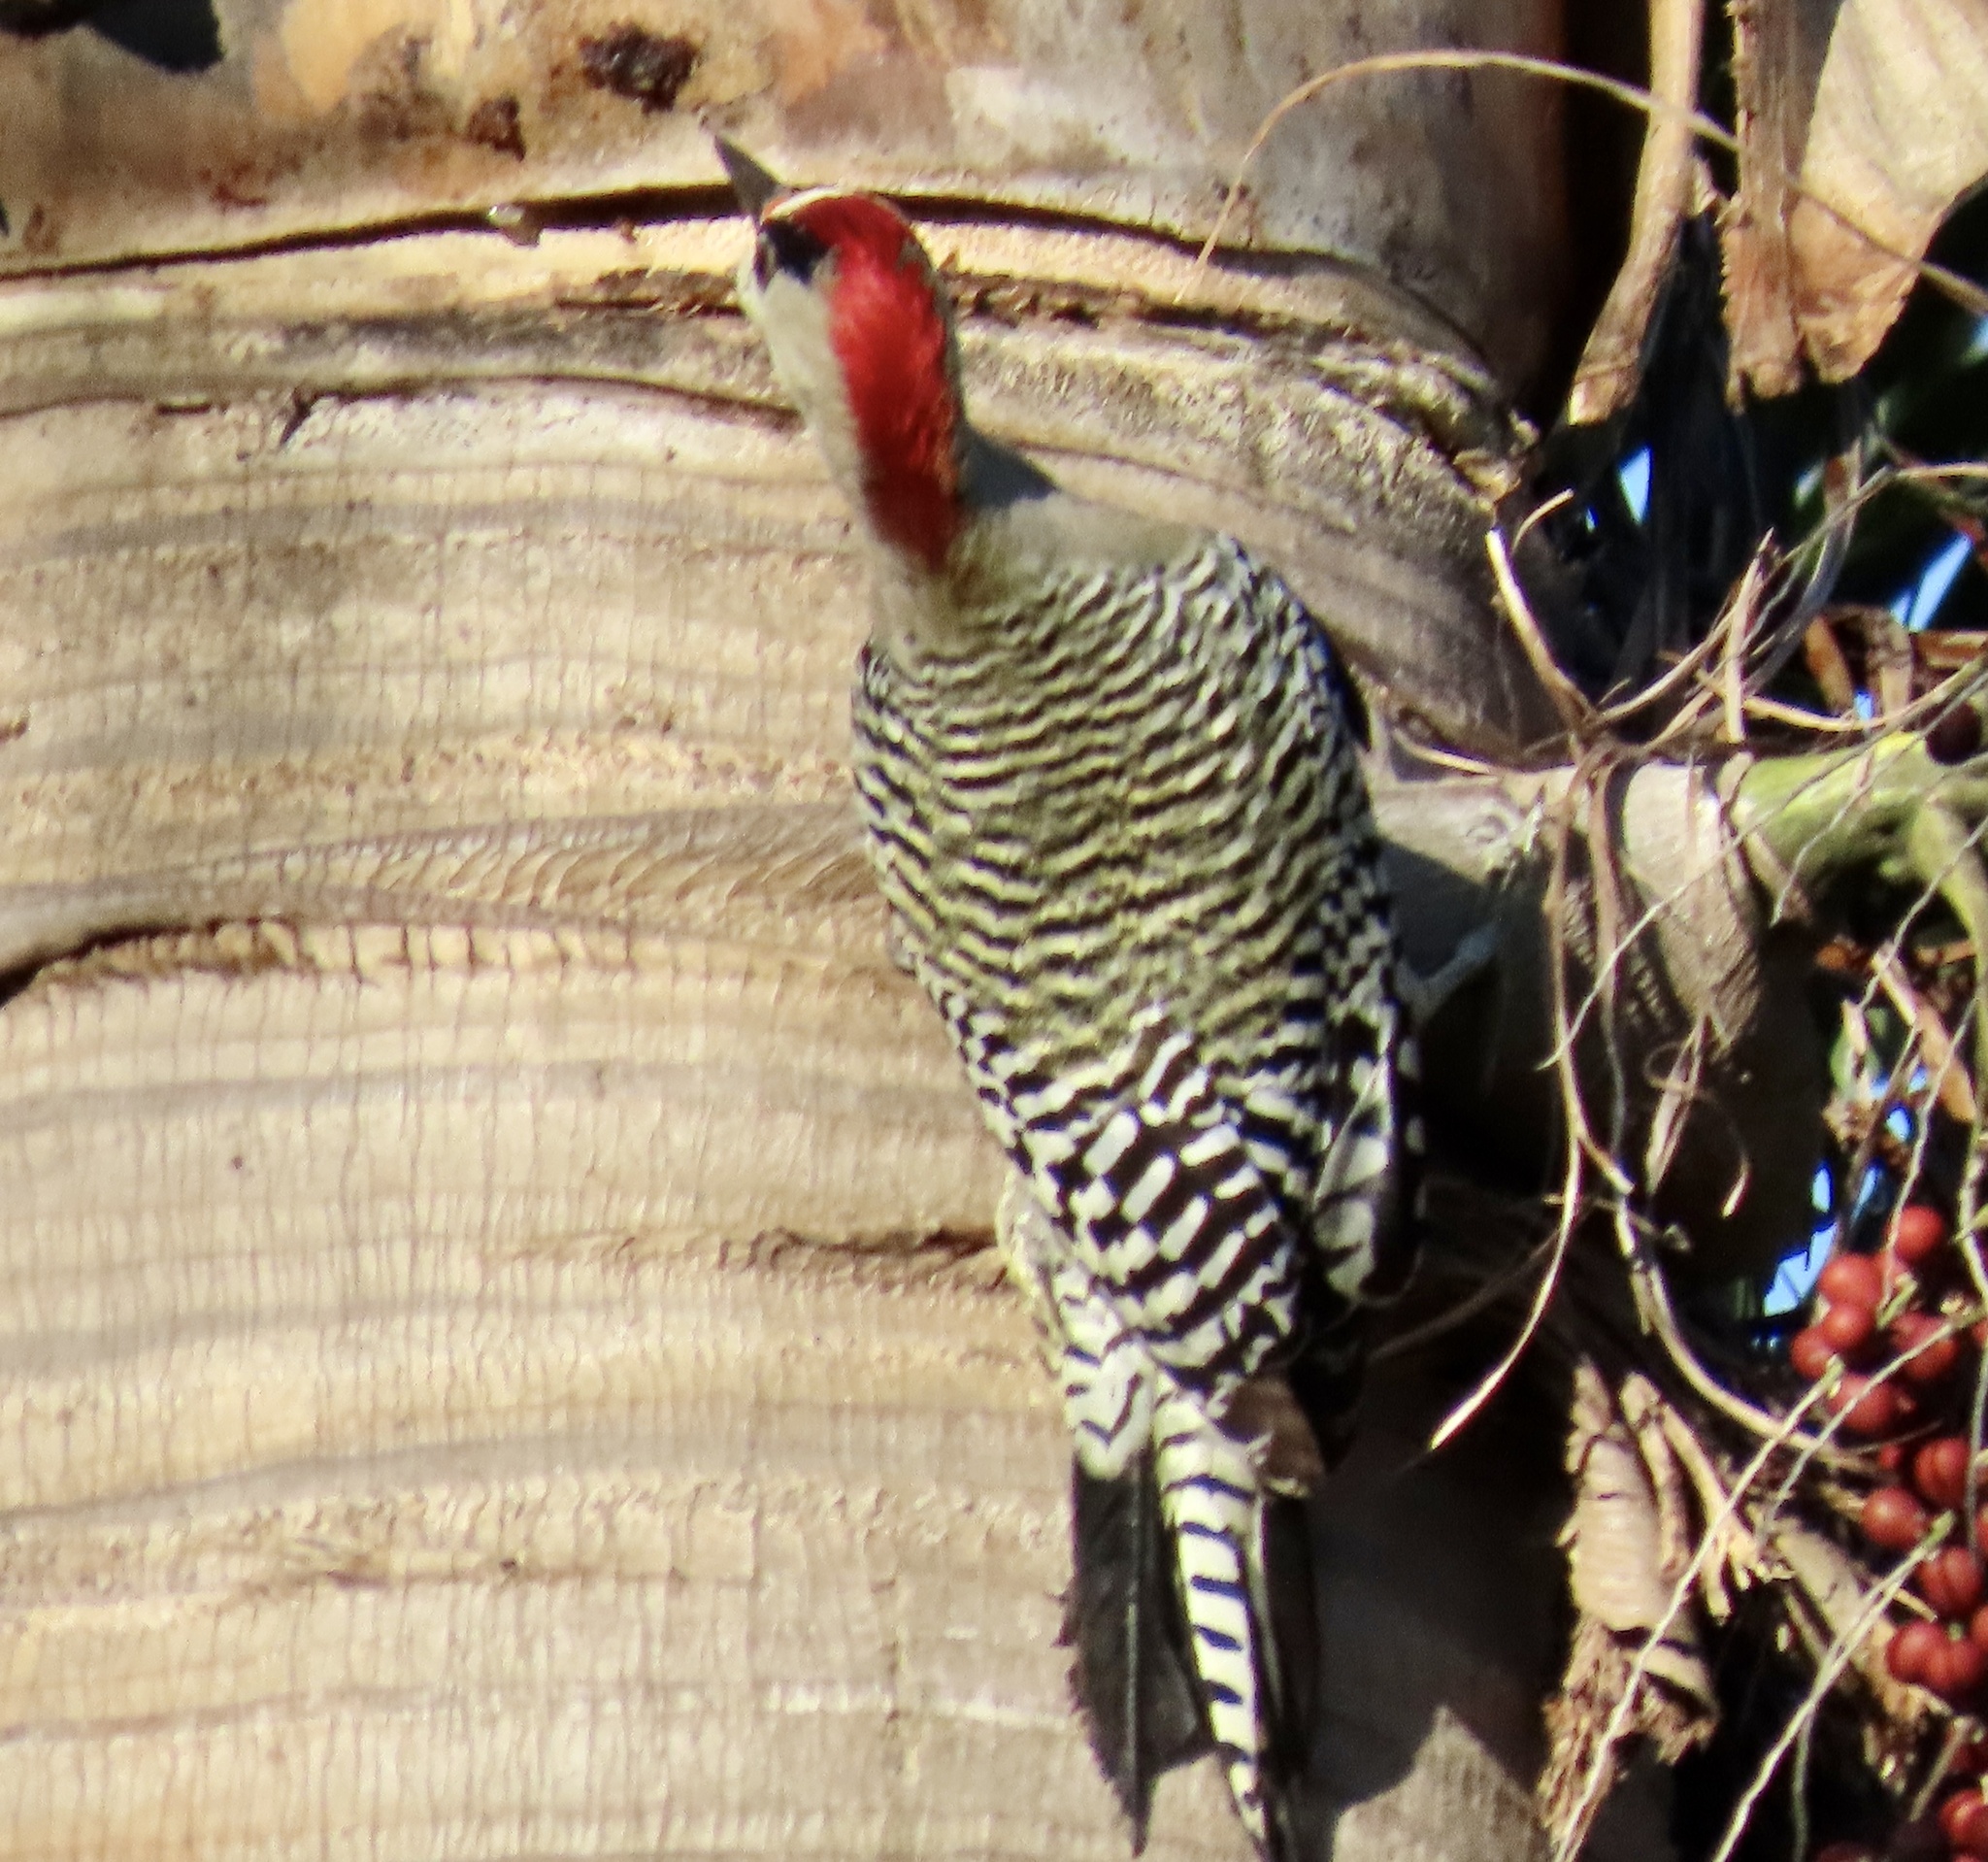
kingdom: Animalia
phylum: Chordata
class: Aves
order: Piciformes
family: Picidae
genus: Melanerpes
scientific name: Melanerpes superciliaris
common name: West indian woodpecker
